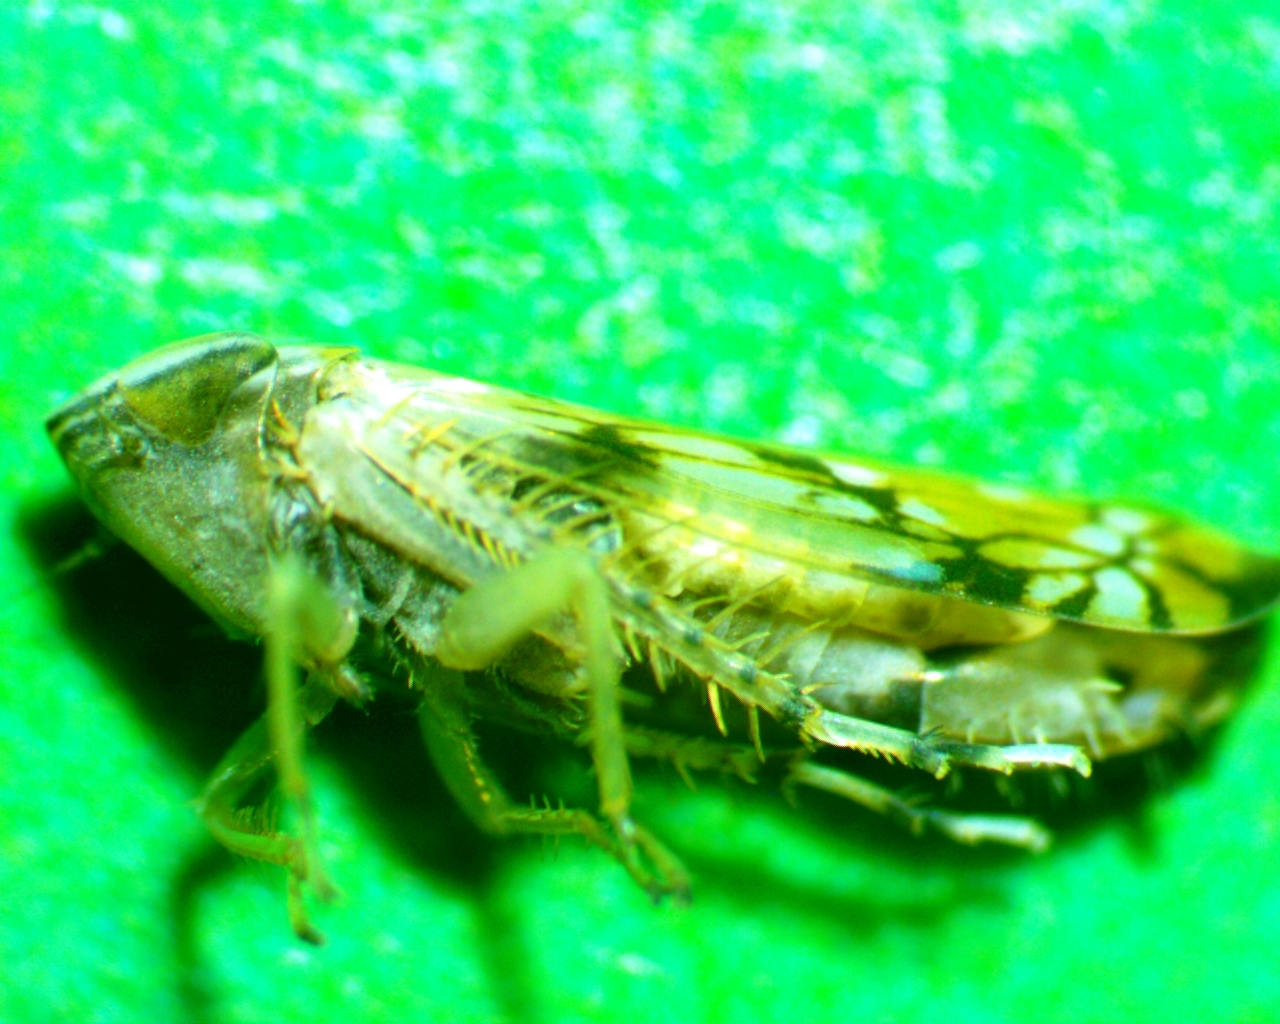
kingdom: Animalia
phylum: Arthropoda
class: Insecta
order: Hemiptera
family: Cicadellidae
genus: Scaphoideus
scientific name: Scaphoideus opalinus
